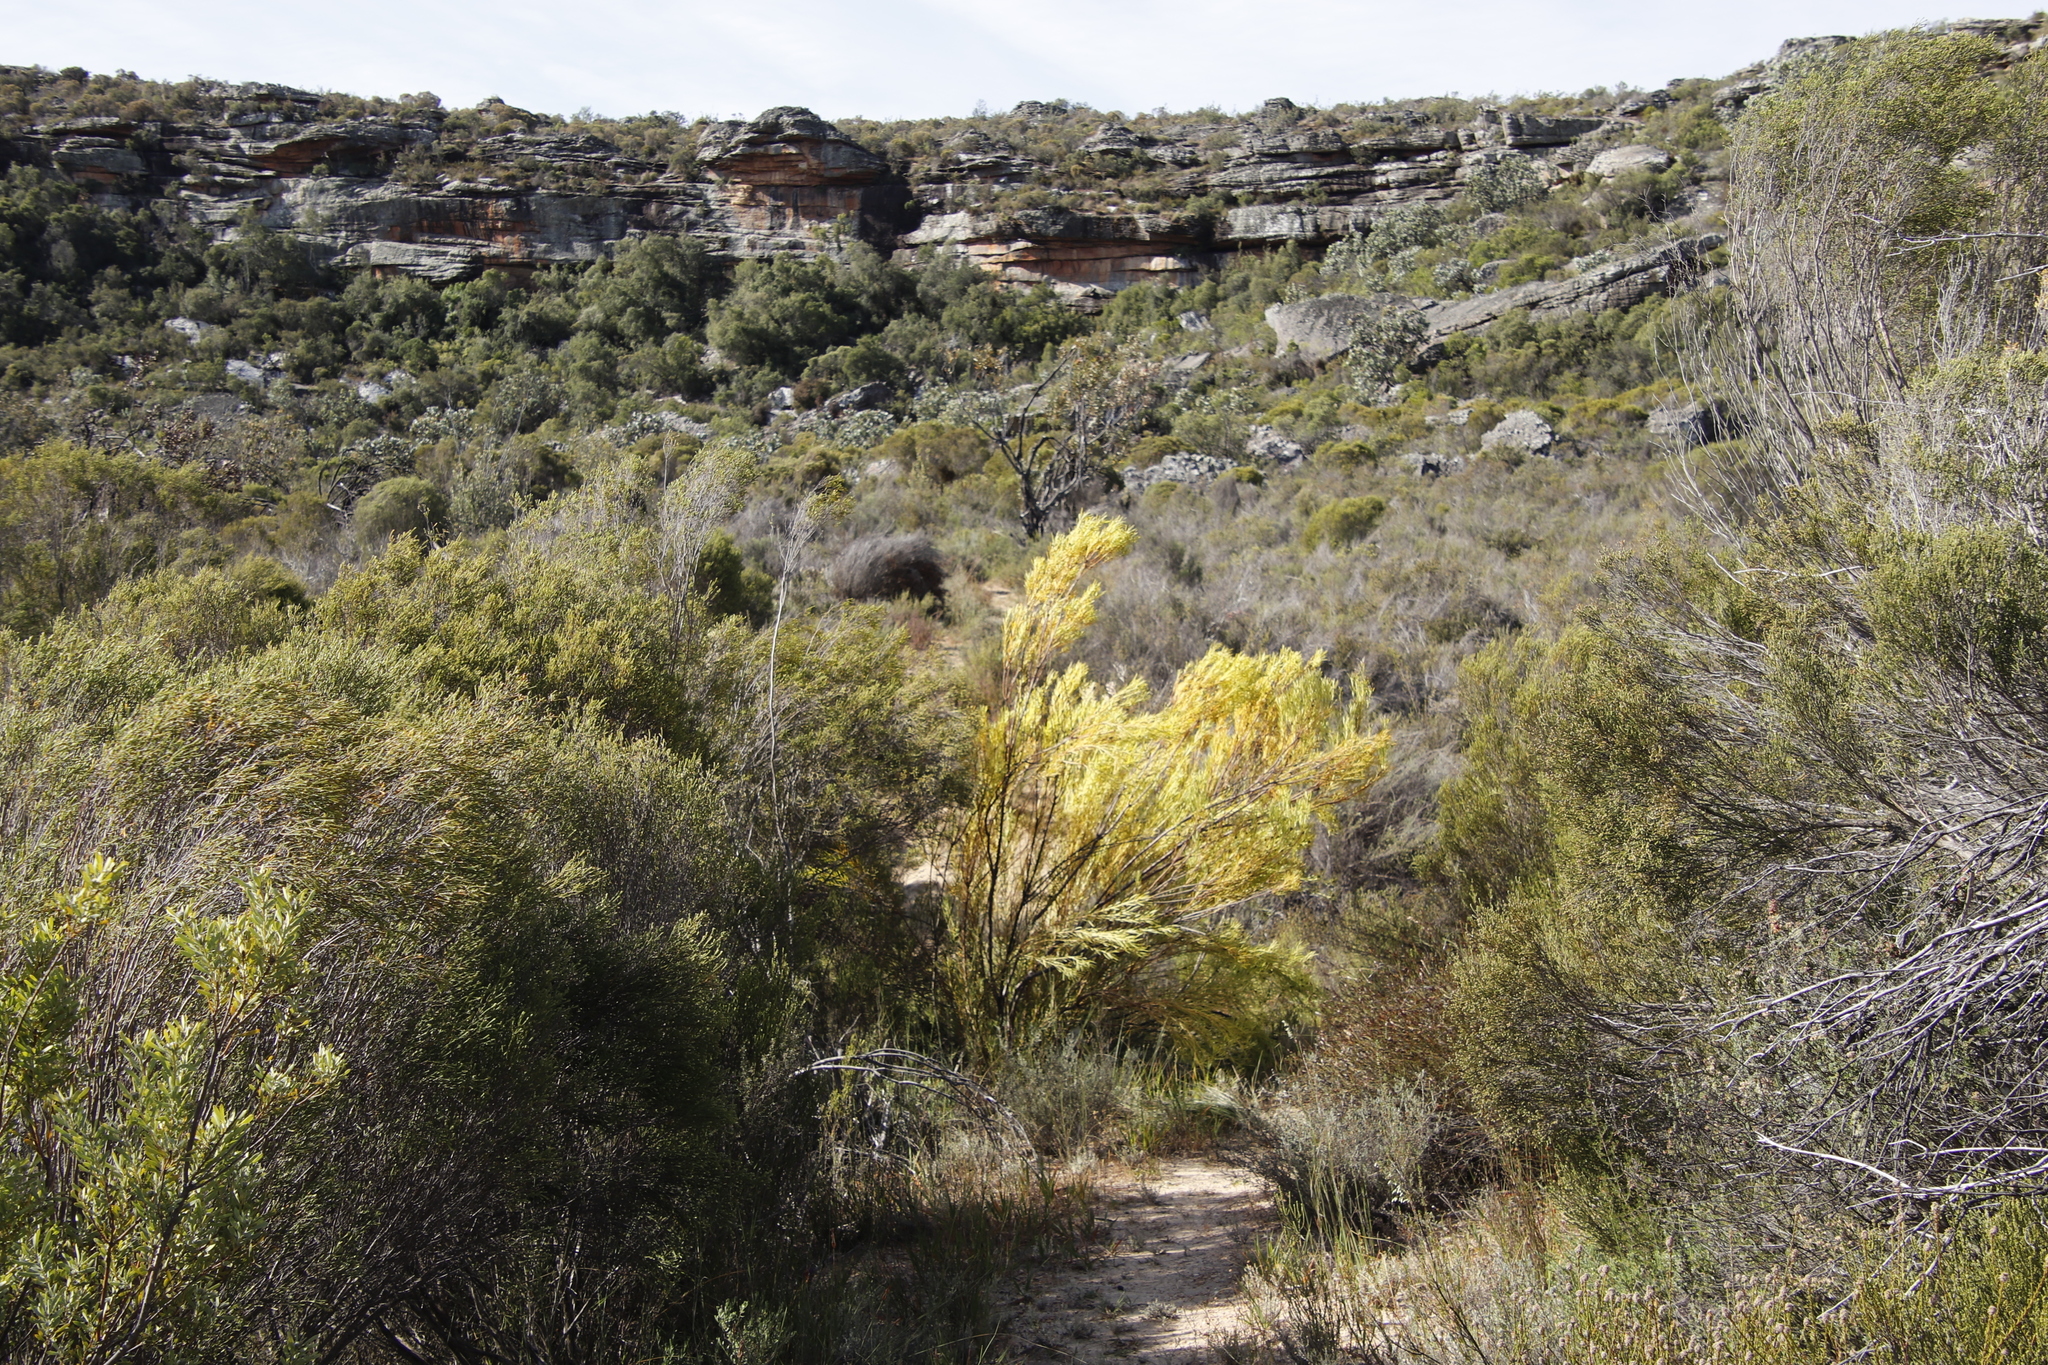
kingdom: Plantae
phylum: Tracheophyta
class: Magnoliopsida
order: Proteales
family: Proteaceae
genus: Leucadendron
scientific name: Leucadendron pubescens
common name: Grey conebush
